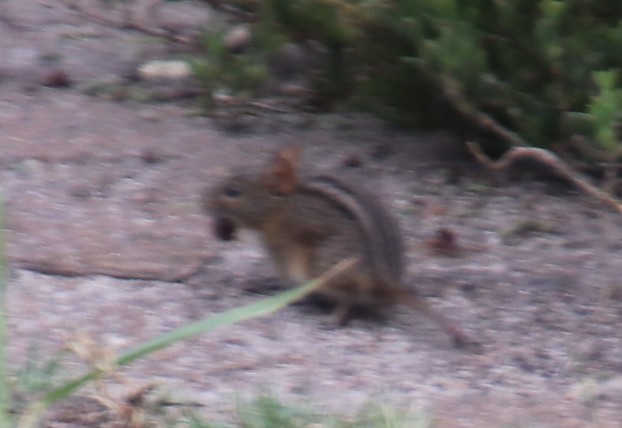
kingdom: Animalia
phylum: Chordata
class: Mammalia
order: Rodentia
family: Muridae
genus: Rhabdomys
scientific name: Rhabdomys pumilio
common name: Xeric four-striped grass rat
